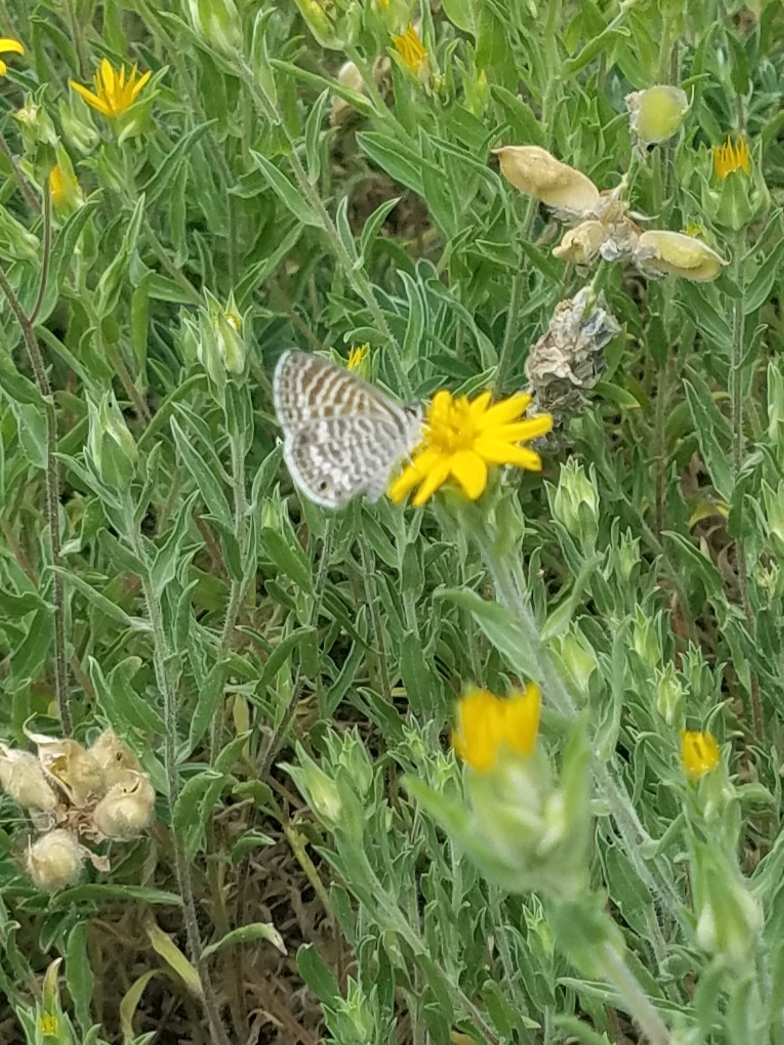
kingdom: Animalia
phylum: Arthropoda
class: Insecta
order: Lepidoptera
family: Lycaenidae
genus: Leptotes
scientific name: Leptotes marina
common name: Marine blue
